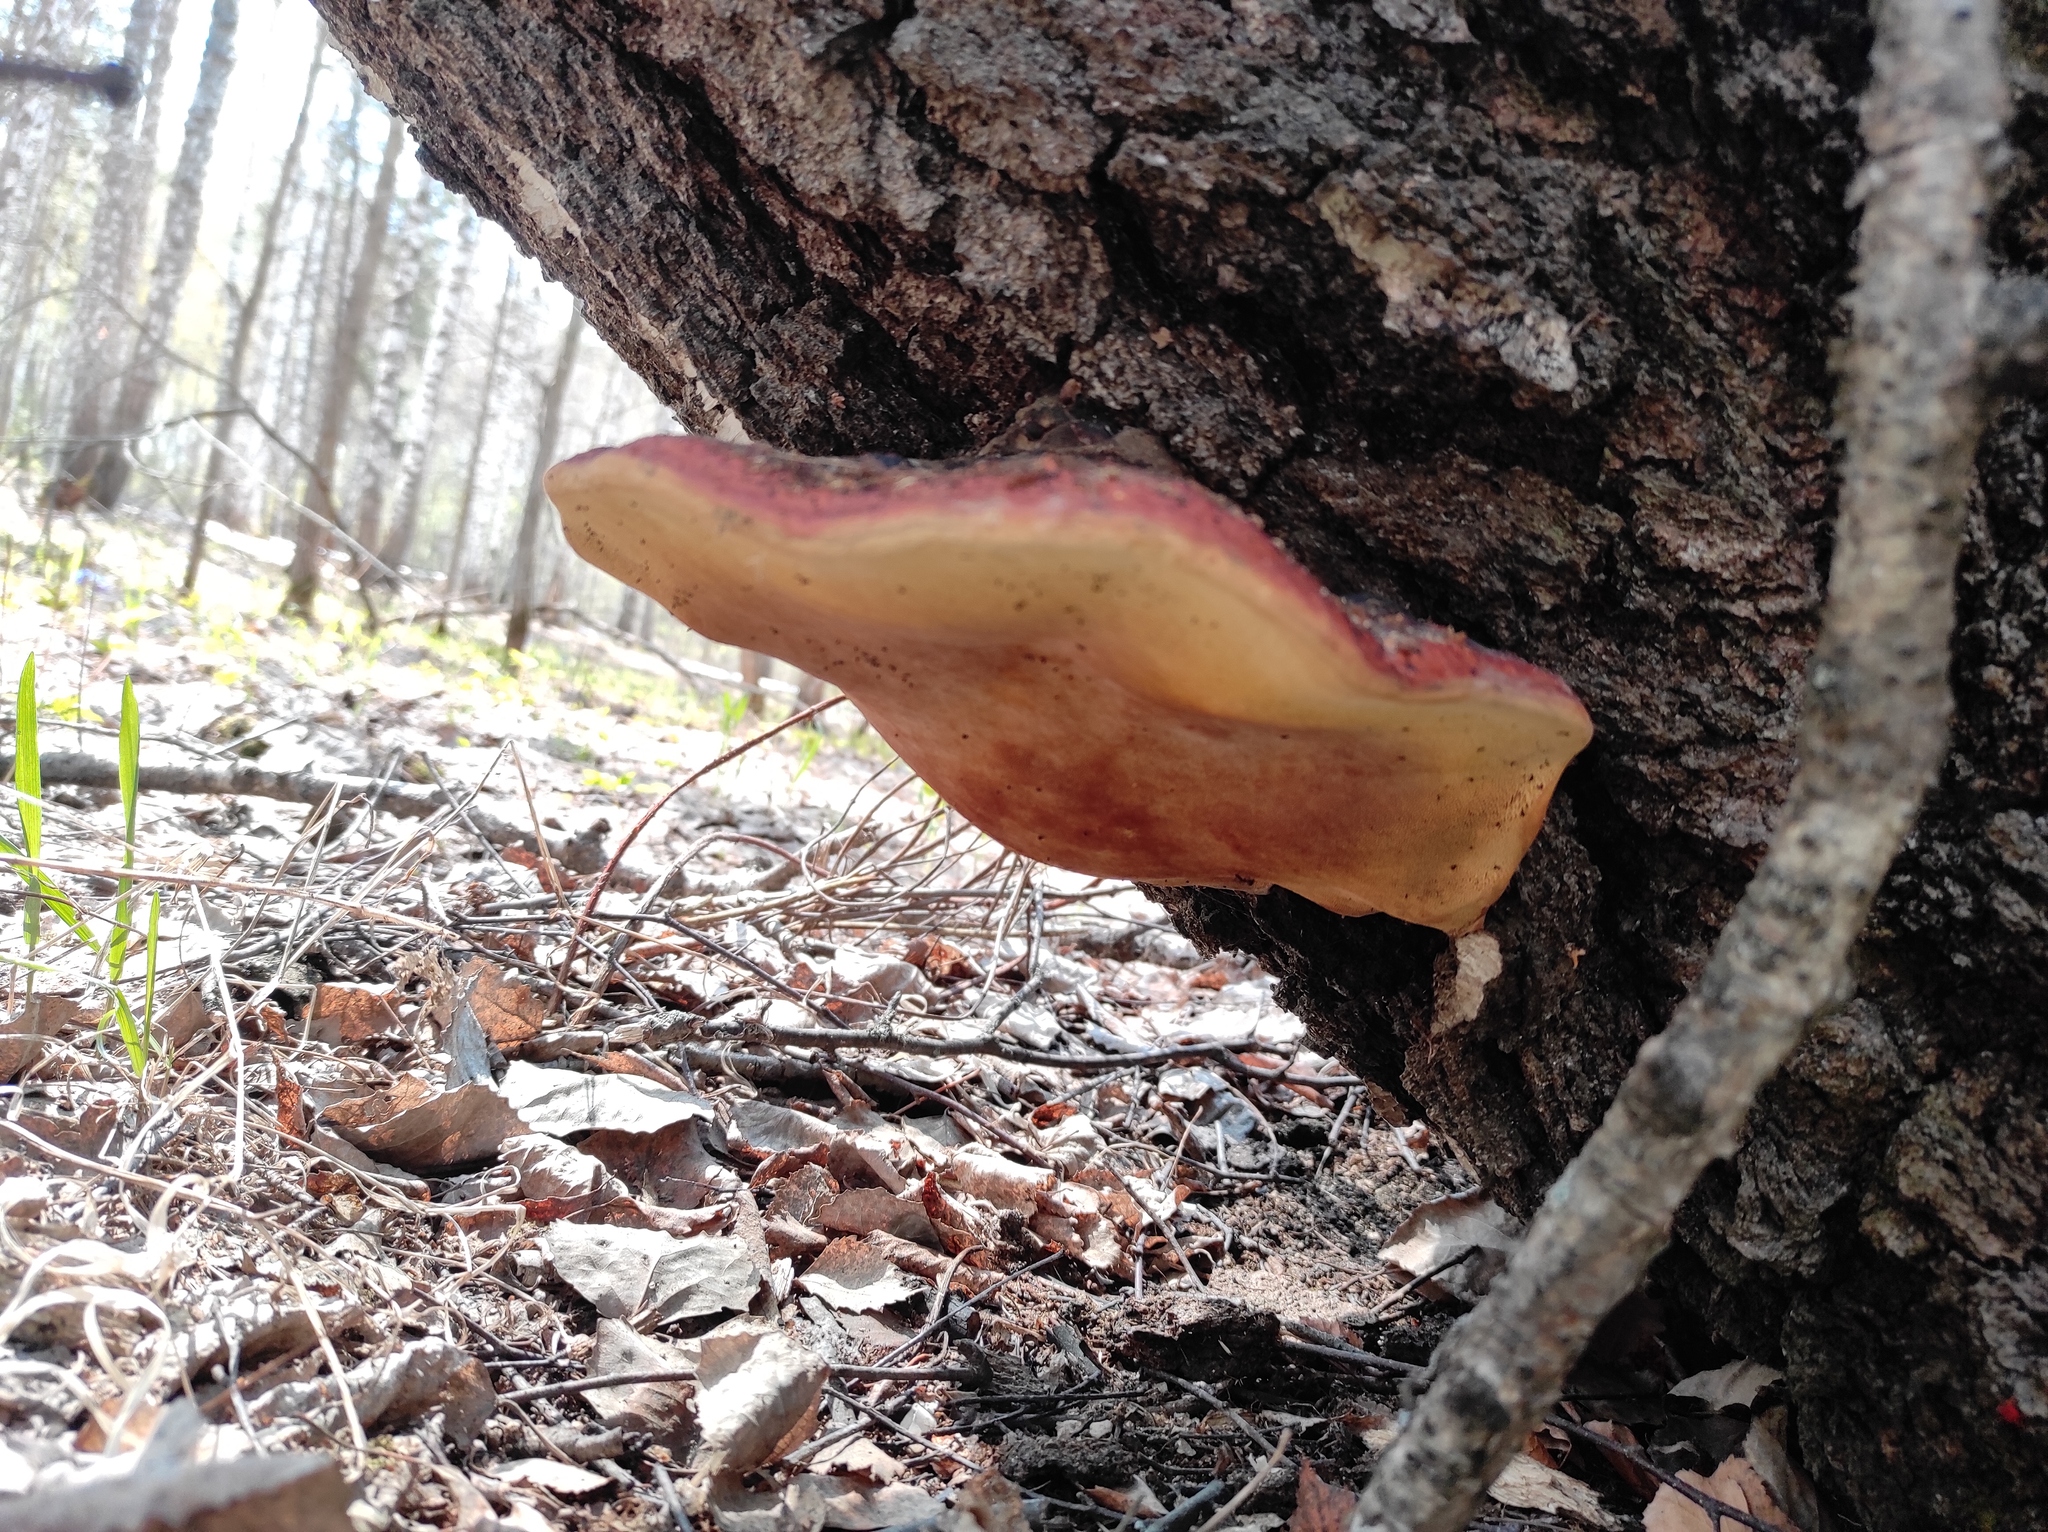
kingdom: Fungi
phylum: Basidiomycota
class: Agaricomycetes
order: Polyporales
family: Fomitopsidaceae
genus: Fomitopsis
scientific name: Fomitopsis pinicola
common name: Red-belted bracket
